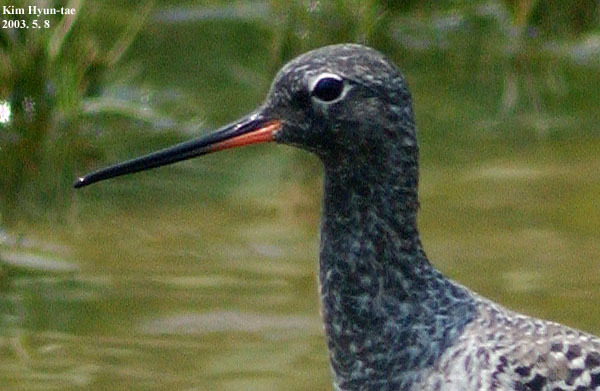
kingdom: Animalia
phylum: Chordata
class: Aves
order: Charadriiformes
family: Scolopacidae
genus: Tringa
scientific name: Tringa erythropus
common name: Spotted redshank
